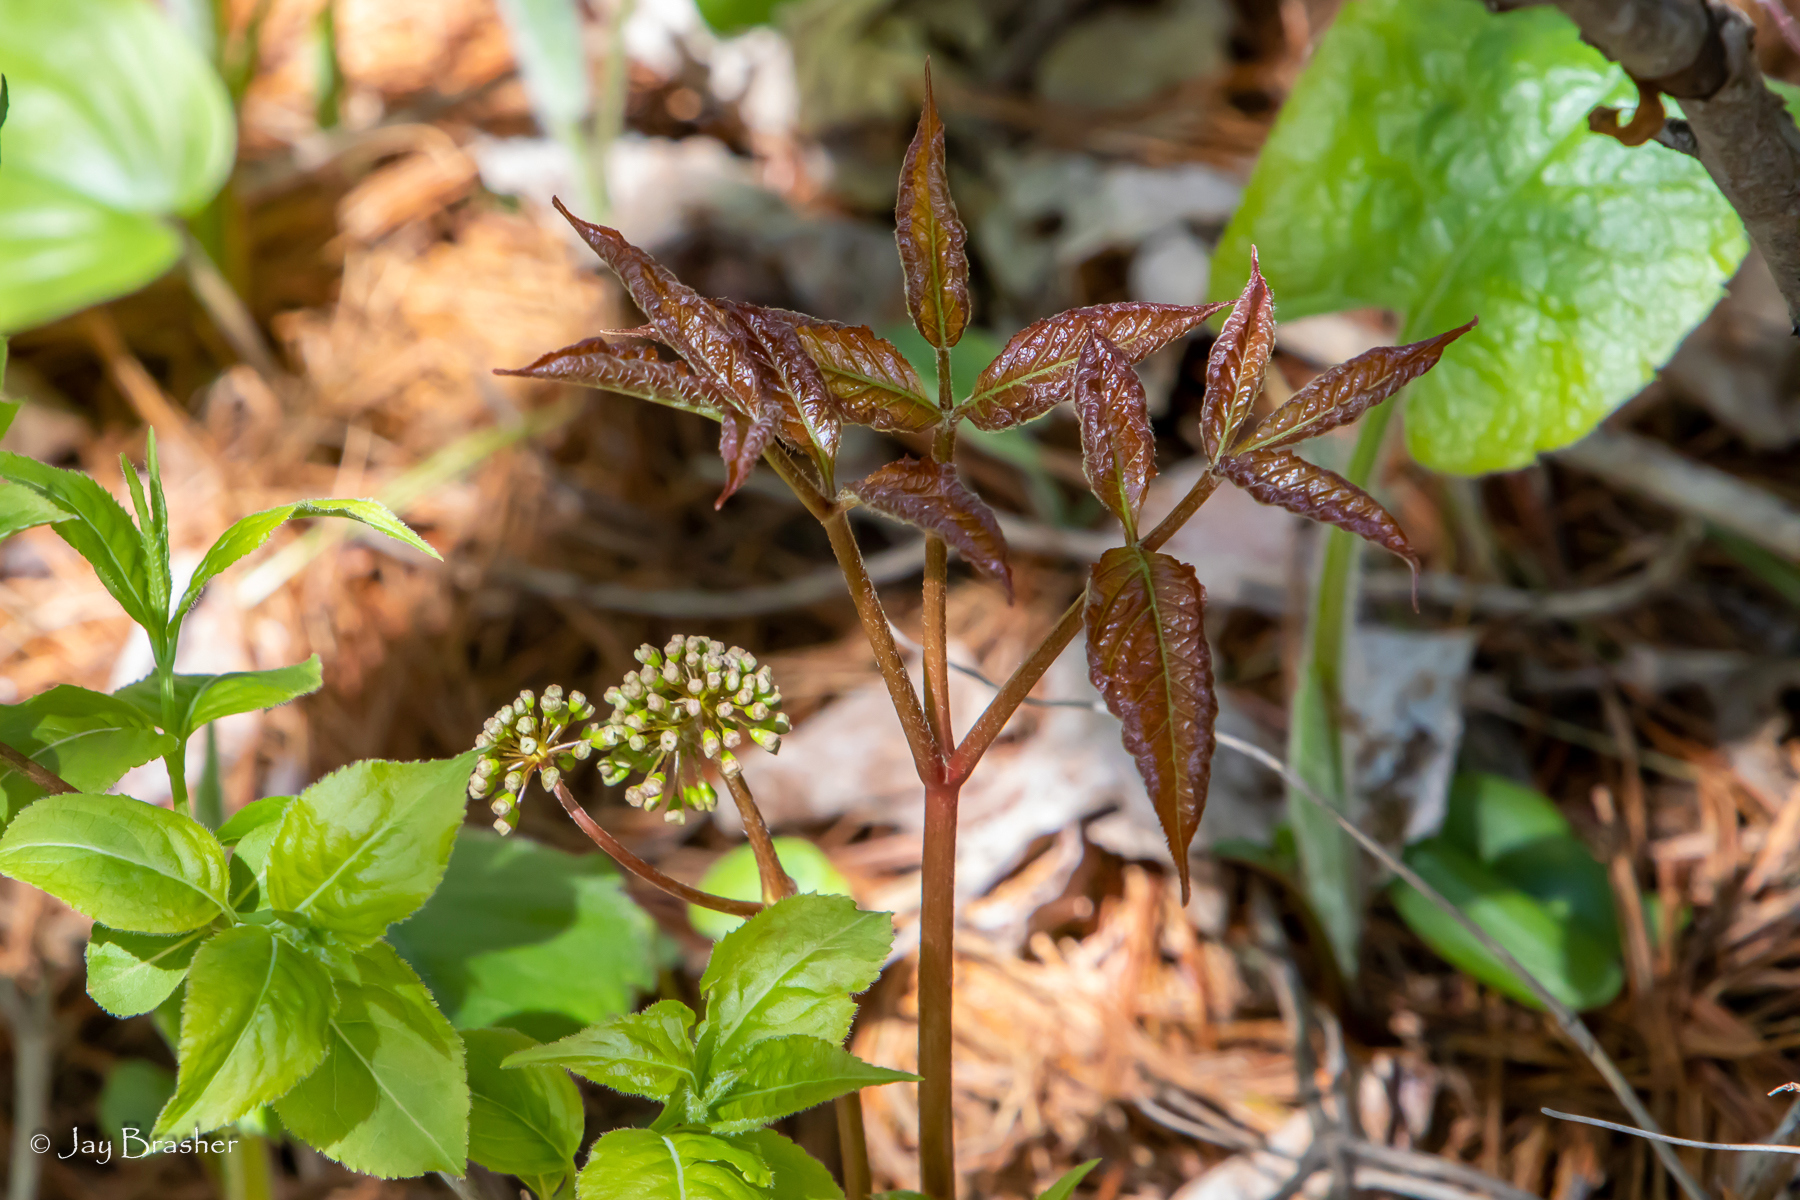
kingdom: Plantae
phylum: Tracheophyta
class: Magnoliopsida
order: Apiales
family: Araliaceae
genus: Aralia
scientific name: Aralia nudicaulis
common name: Wild sarsaparilla
